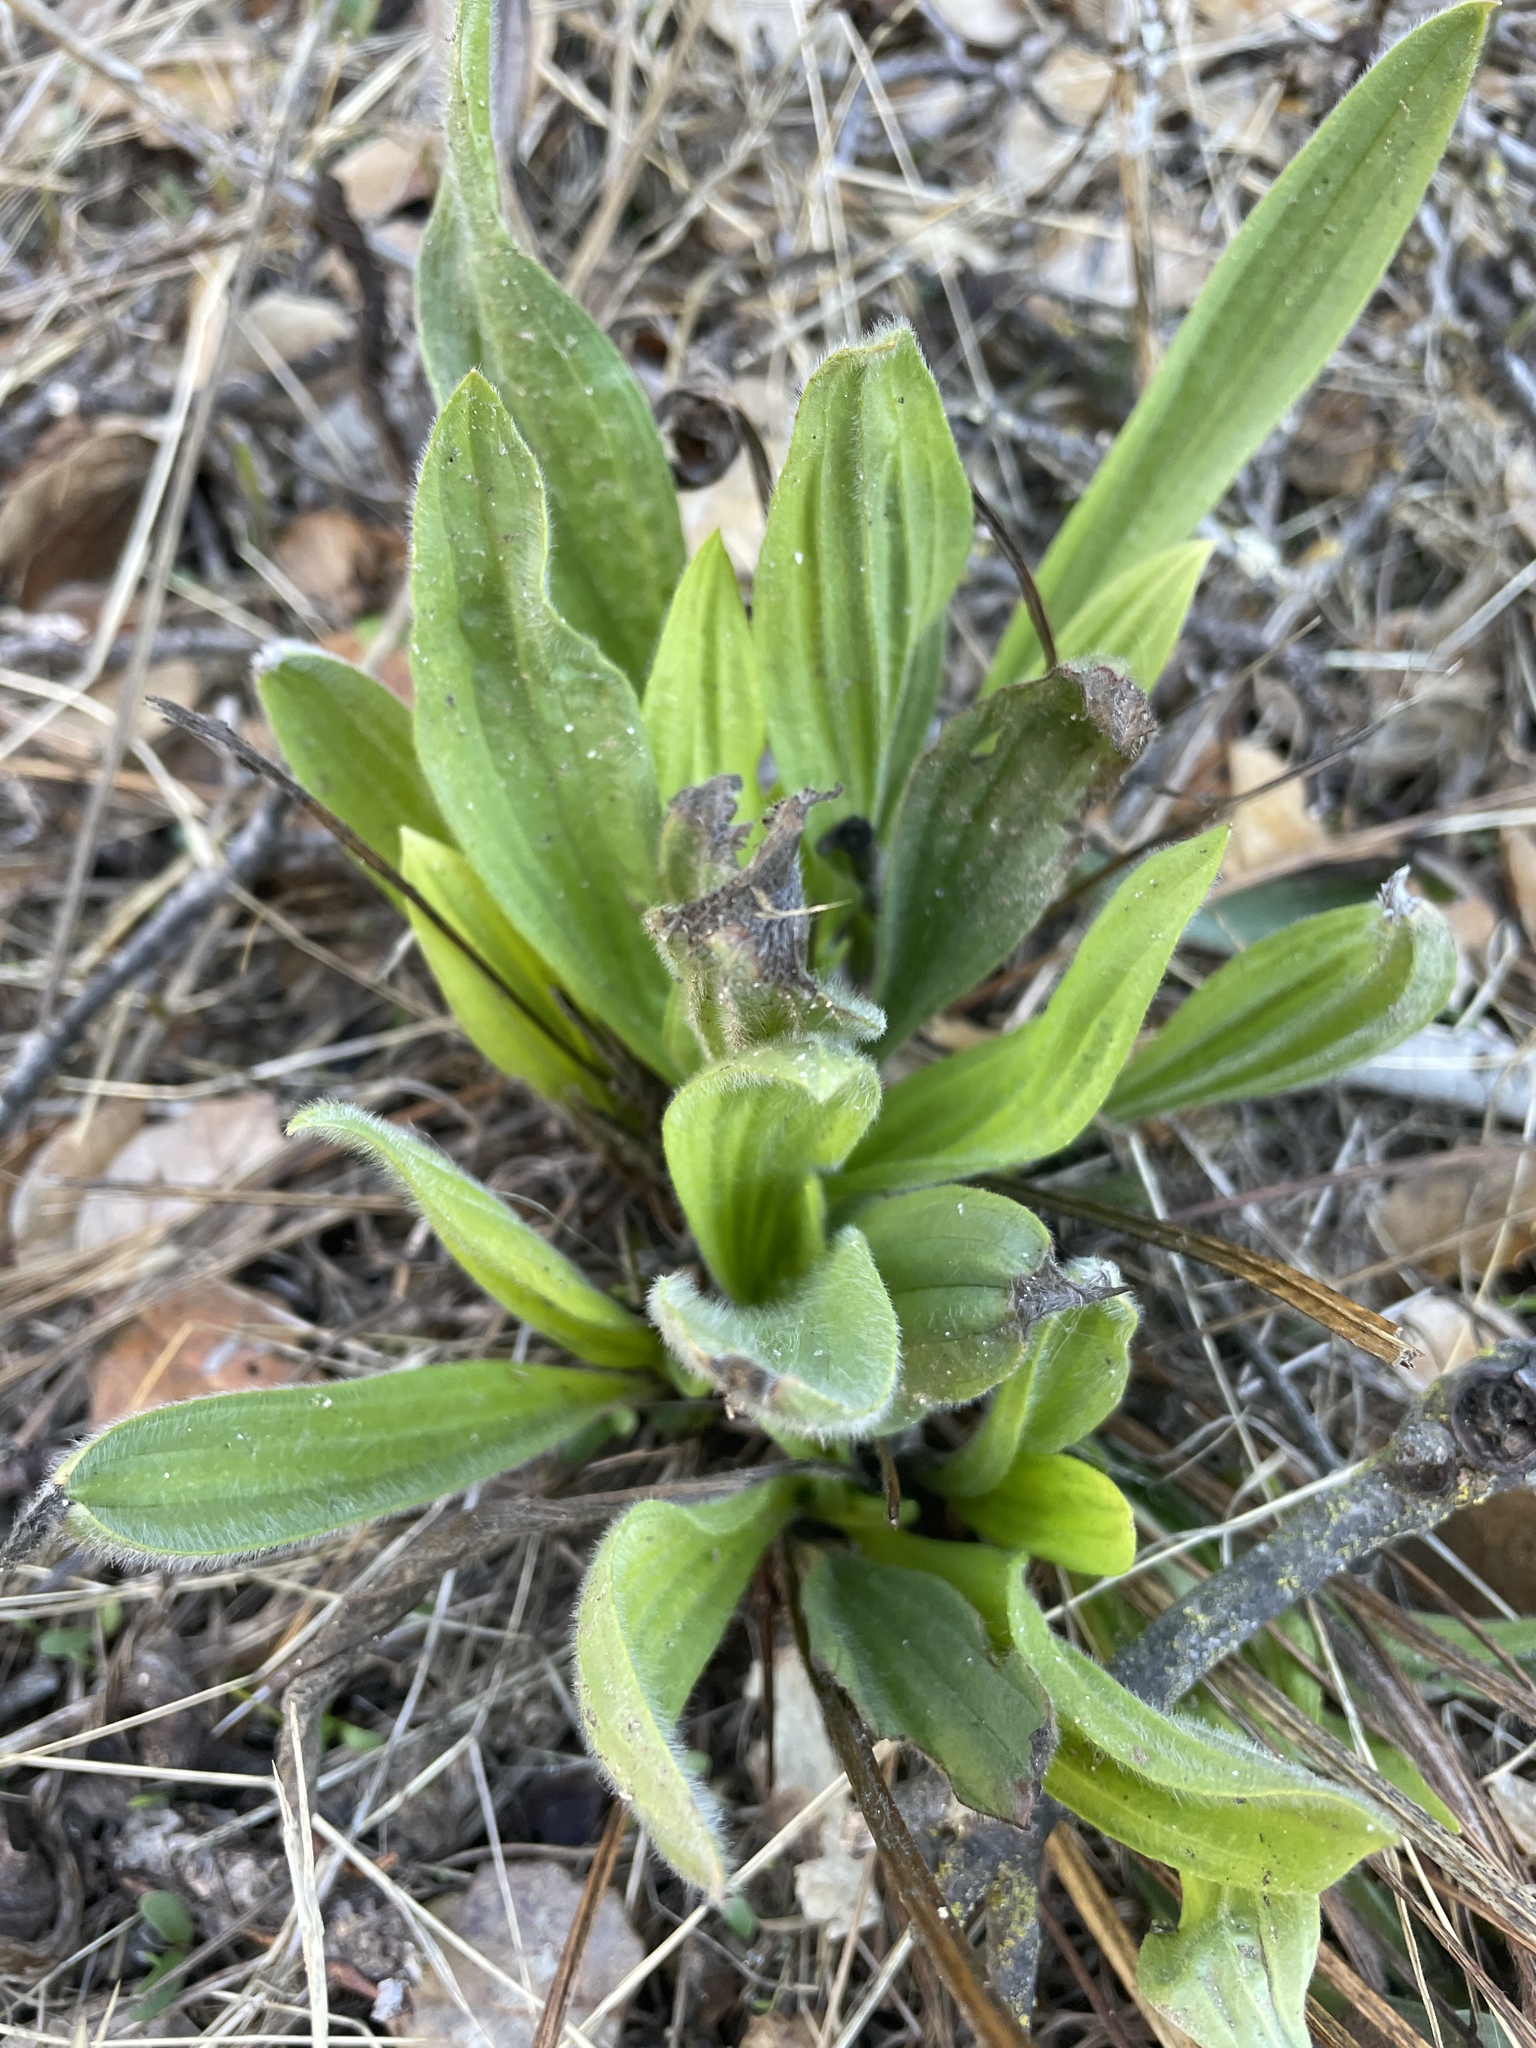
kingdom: Plantae
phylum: Tracheophyta
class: Magnoliopsida
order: Lamiales
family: Plantaginaceae
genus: Plantago
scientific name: Plantago lanceolata
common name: Ribwort plantain
